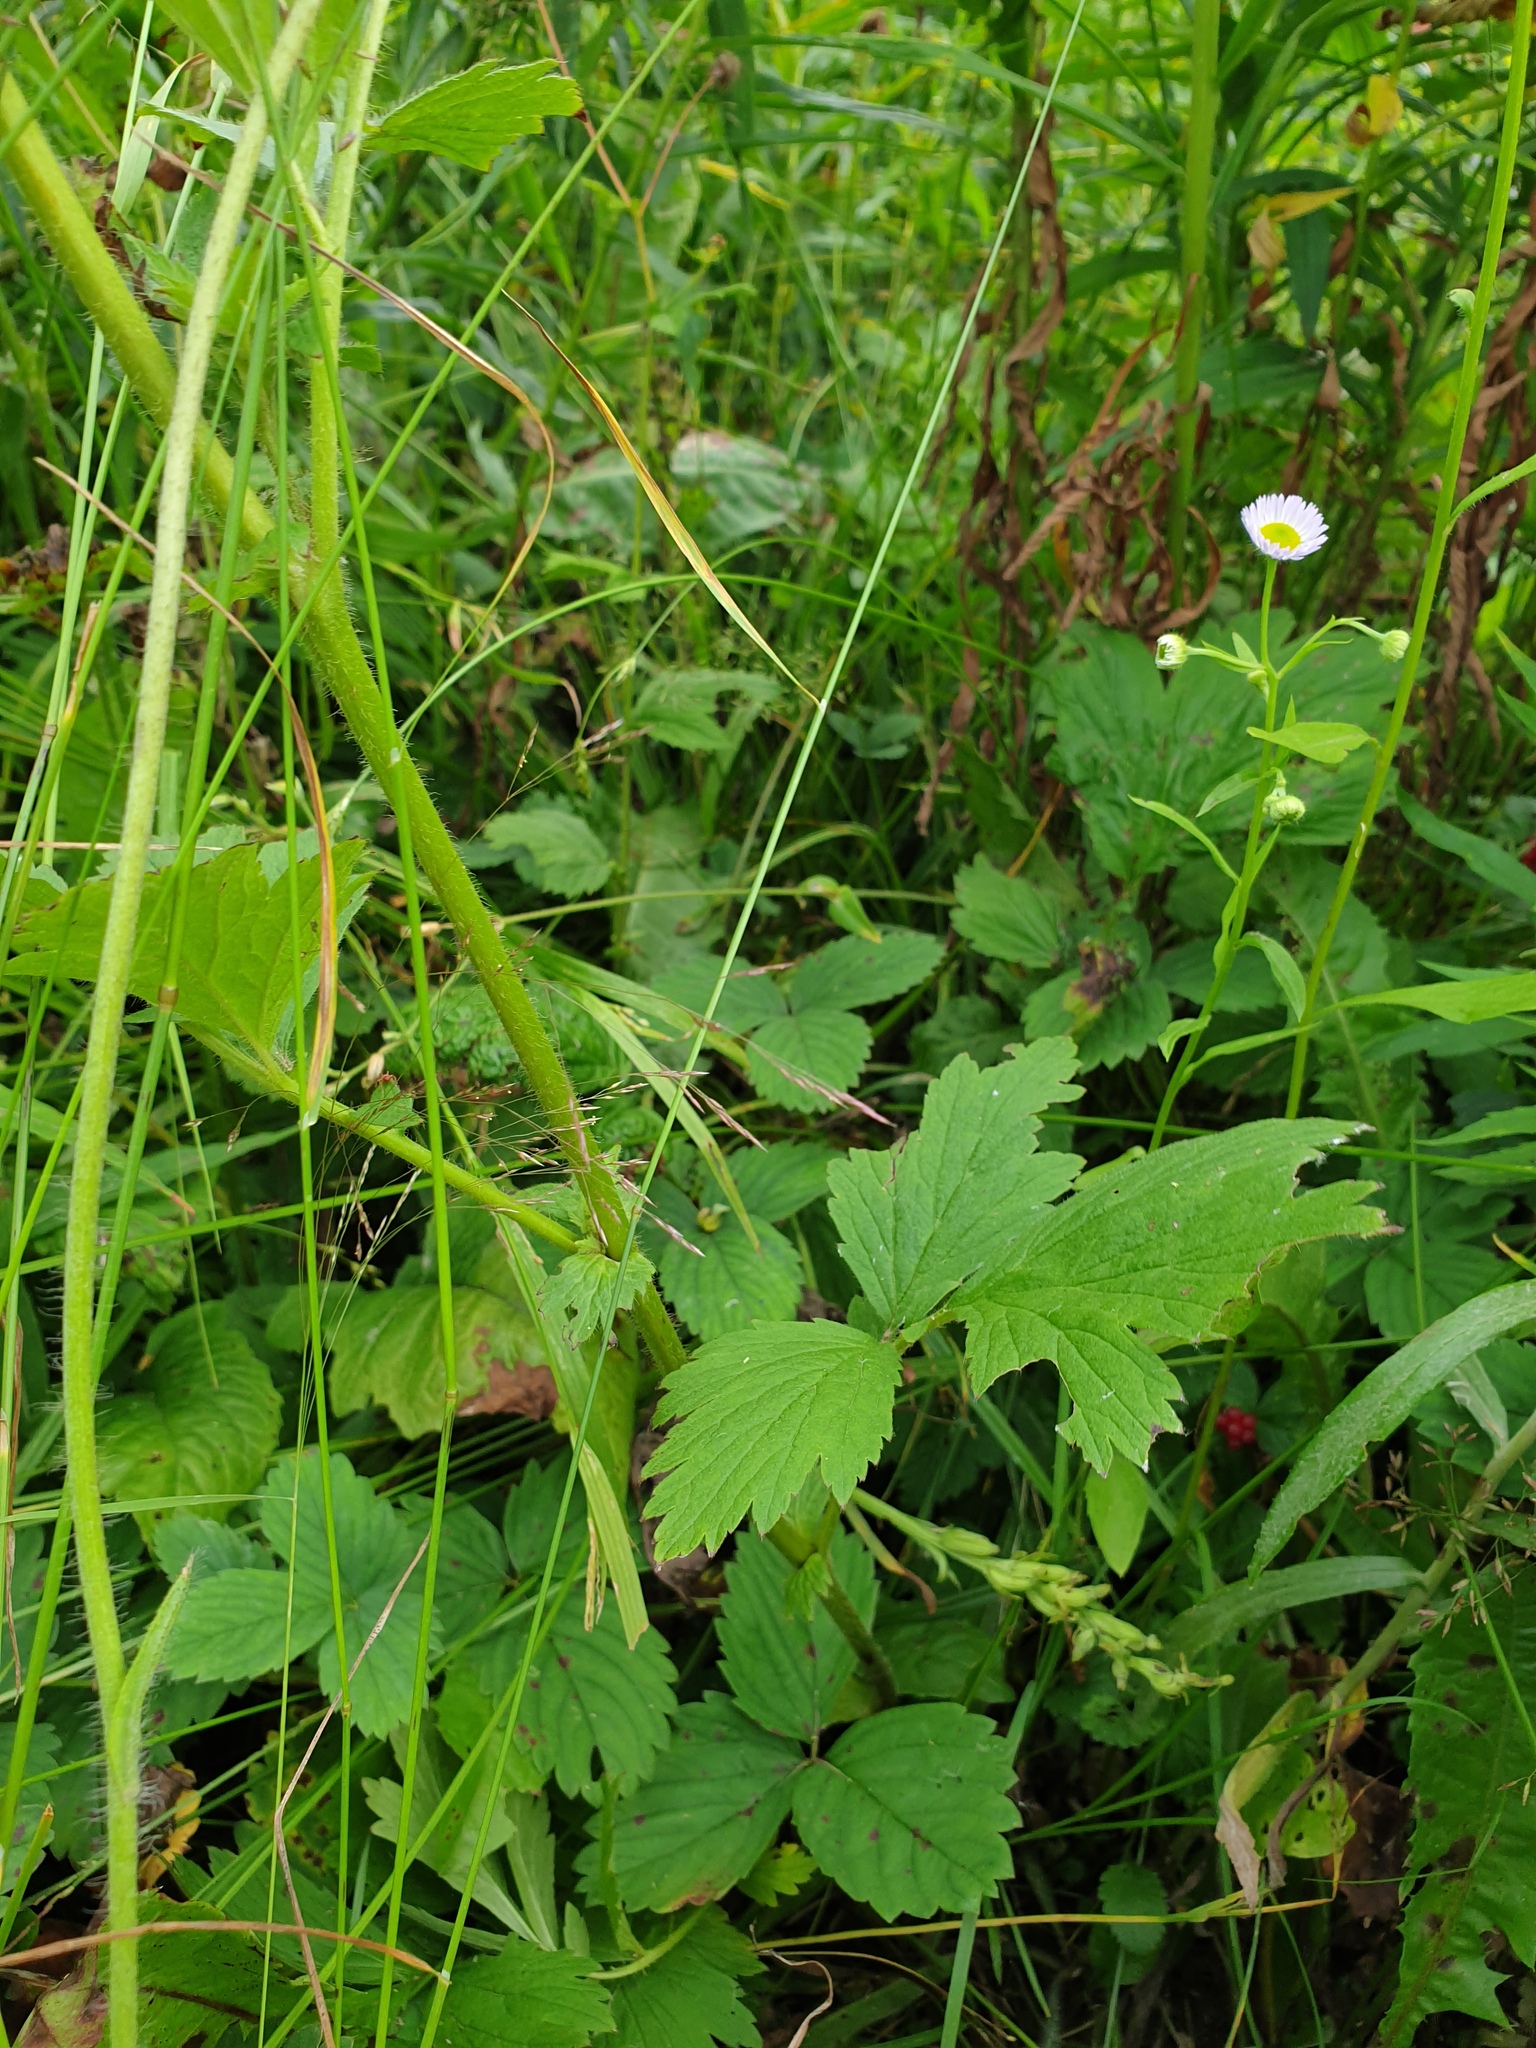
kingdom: Plantae
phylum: Tracheophyta
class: Magnoliopsida
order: Rosales
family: Rosaceae
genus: Geum
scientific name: Geum aleppicum
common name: Yellow avens
